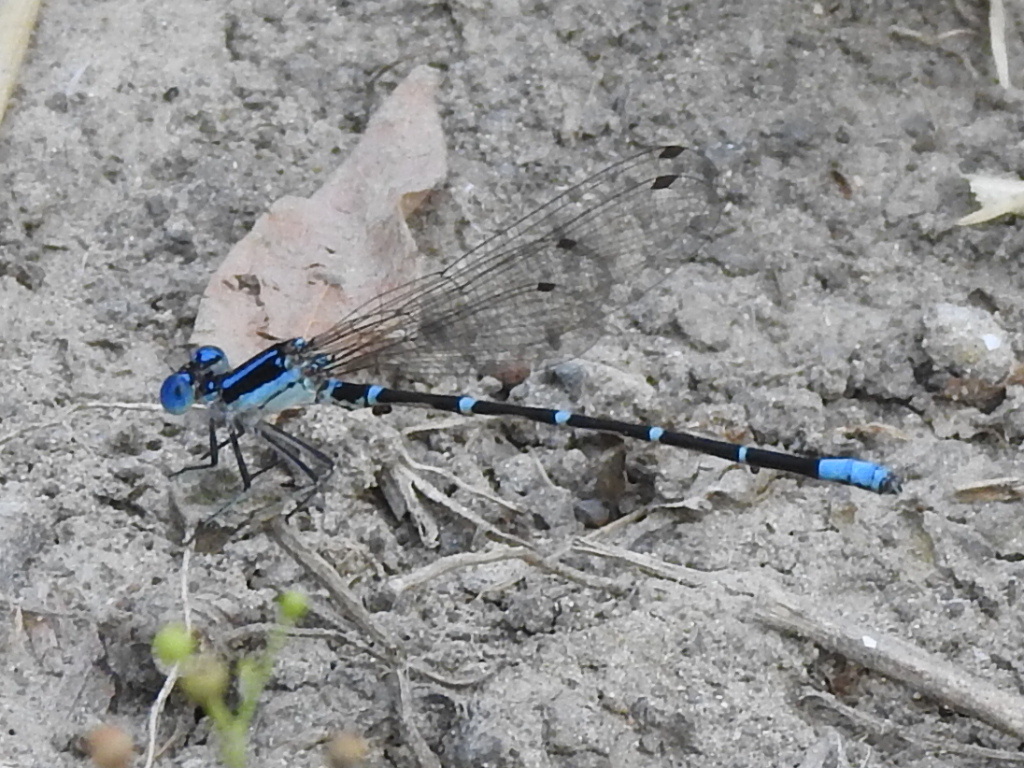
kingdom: Animalia
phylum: Arthropoda
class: Insecta
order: Odonata
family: Coenagrionidae
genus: Argia
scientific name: Argia sedula
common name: Blue-ringed dancer
